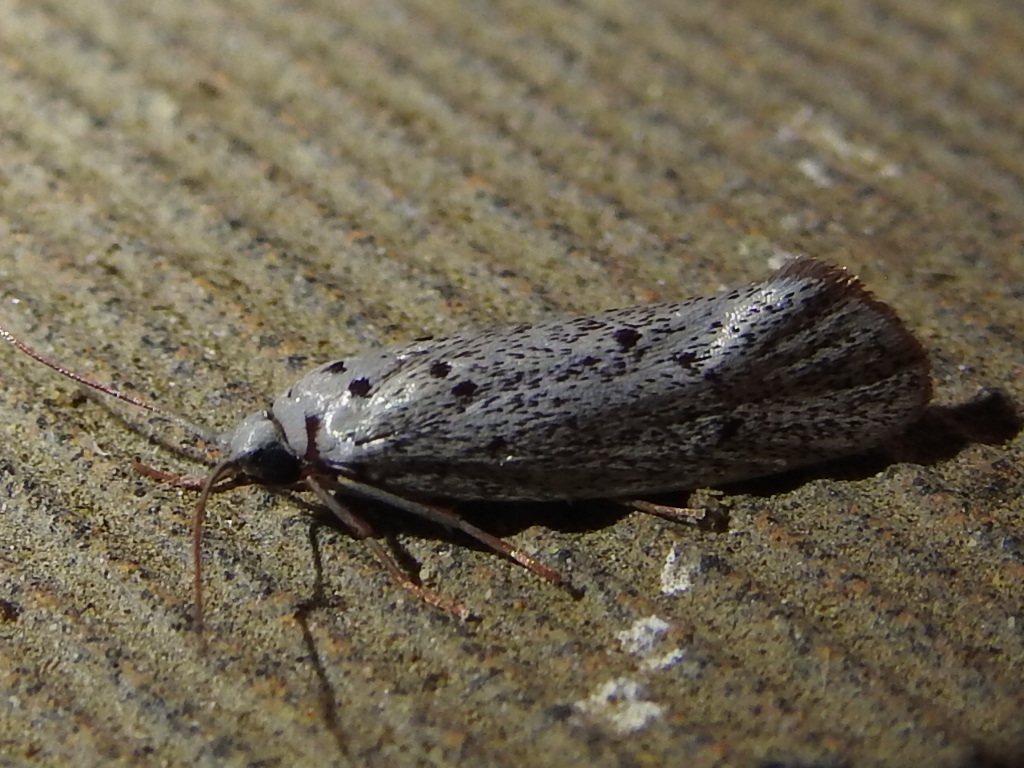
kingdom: Animalia
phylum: Arthropoda
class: Insecta
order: Lepidoptera
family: Lacturidae
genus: Lactura
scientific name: Lactura
